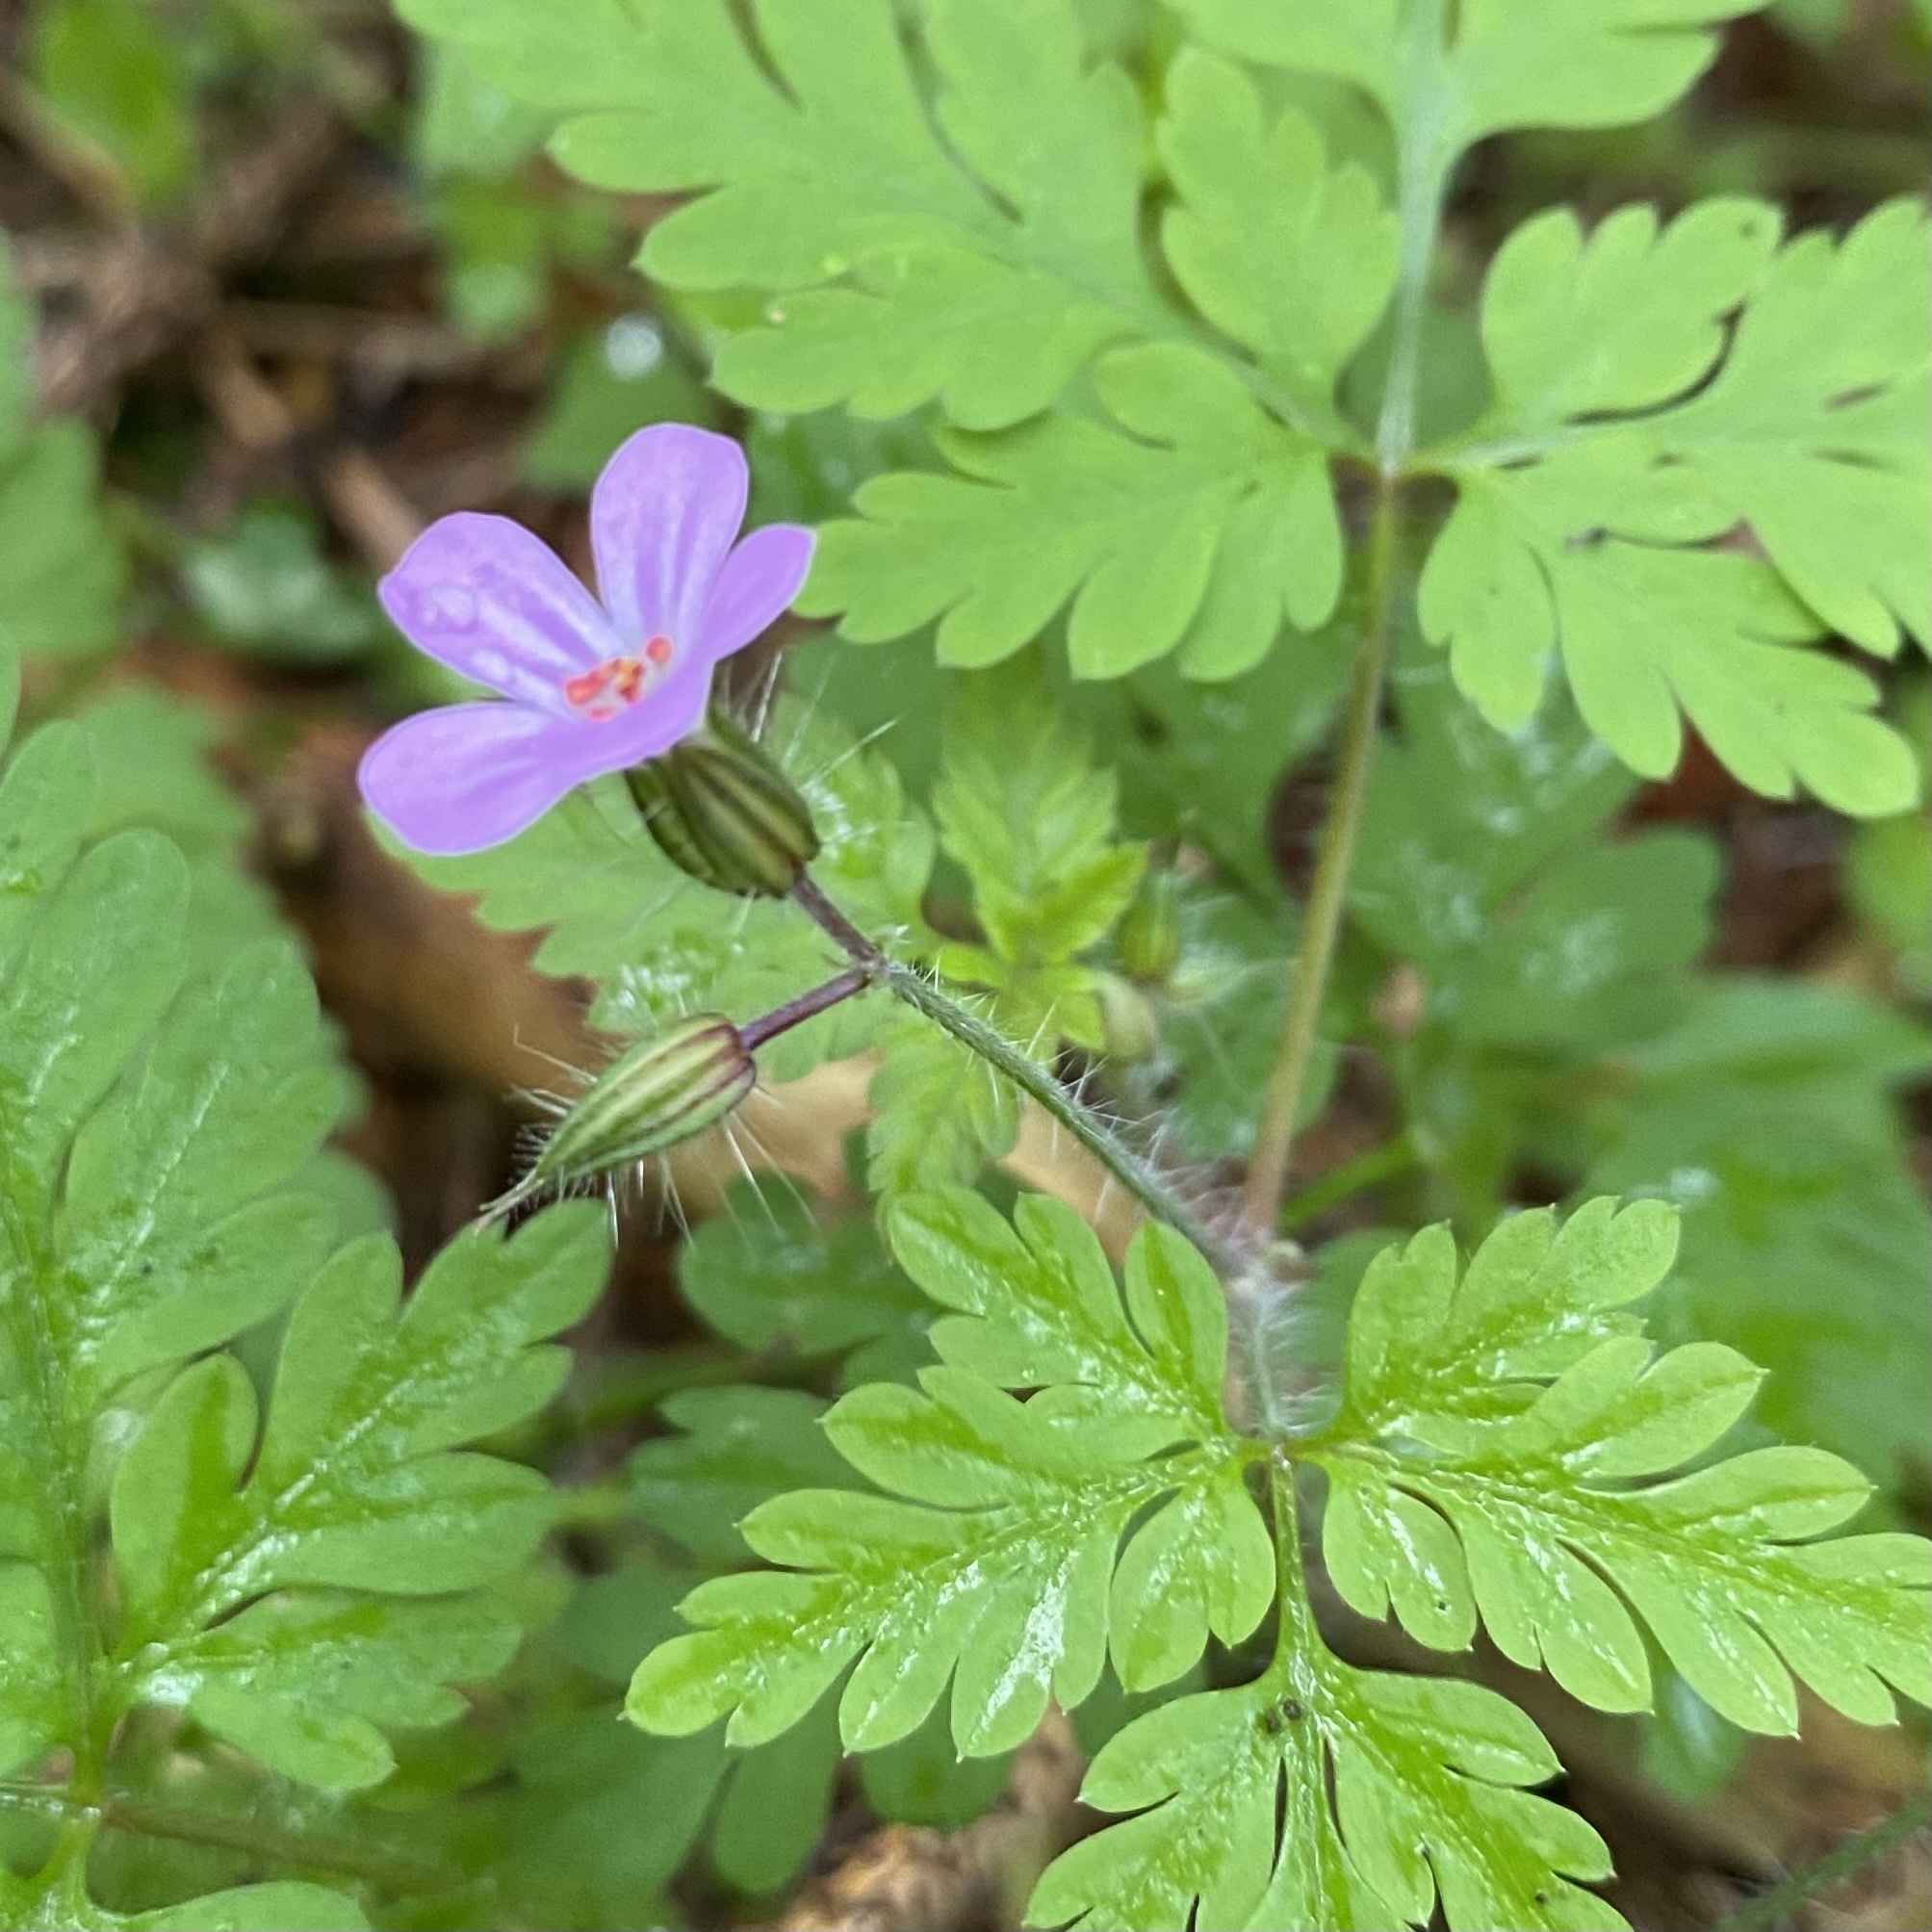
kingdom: Plantae
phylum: Tracheophyta
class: Magnoliopsida
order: Geraniales
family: Geraniaceae
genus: Geranium
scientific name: Geranium robertianum
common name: Herb-robert
